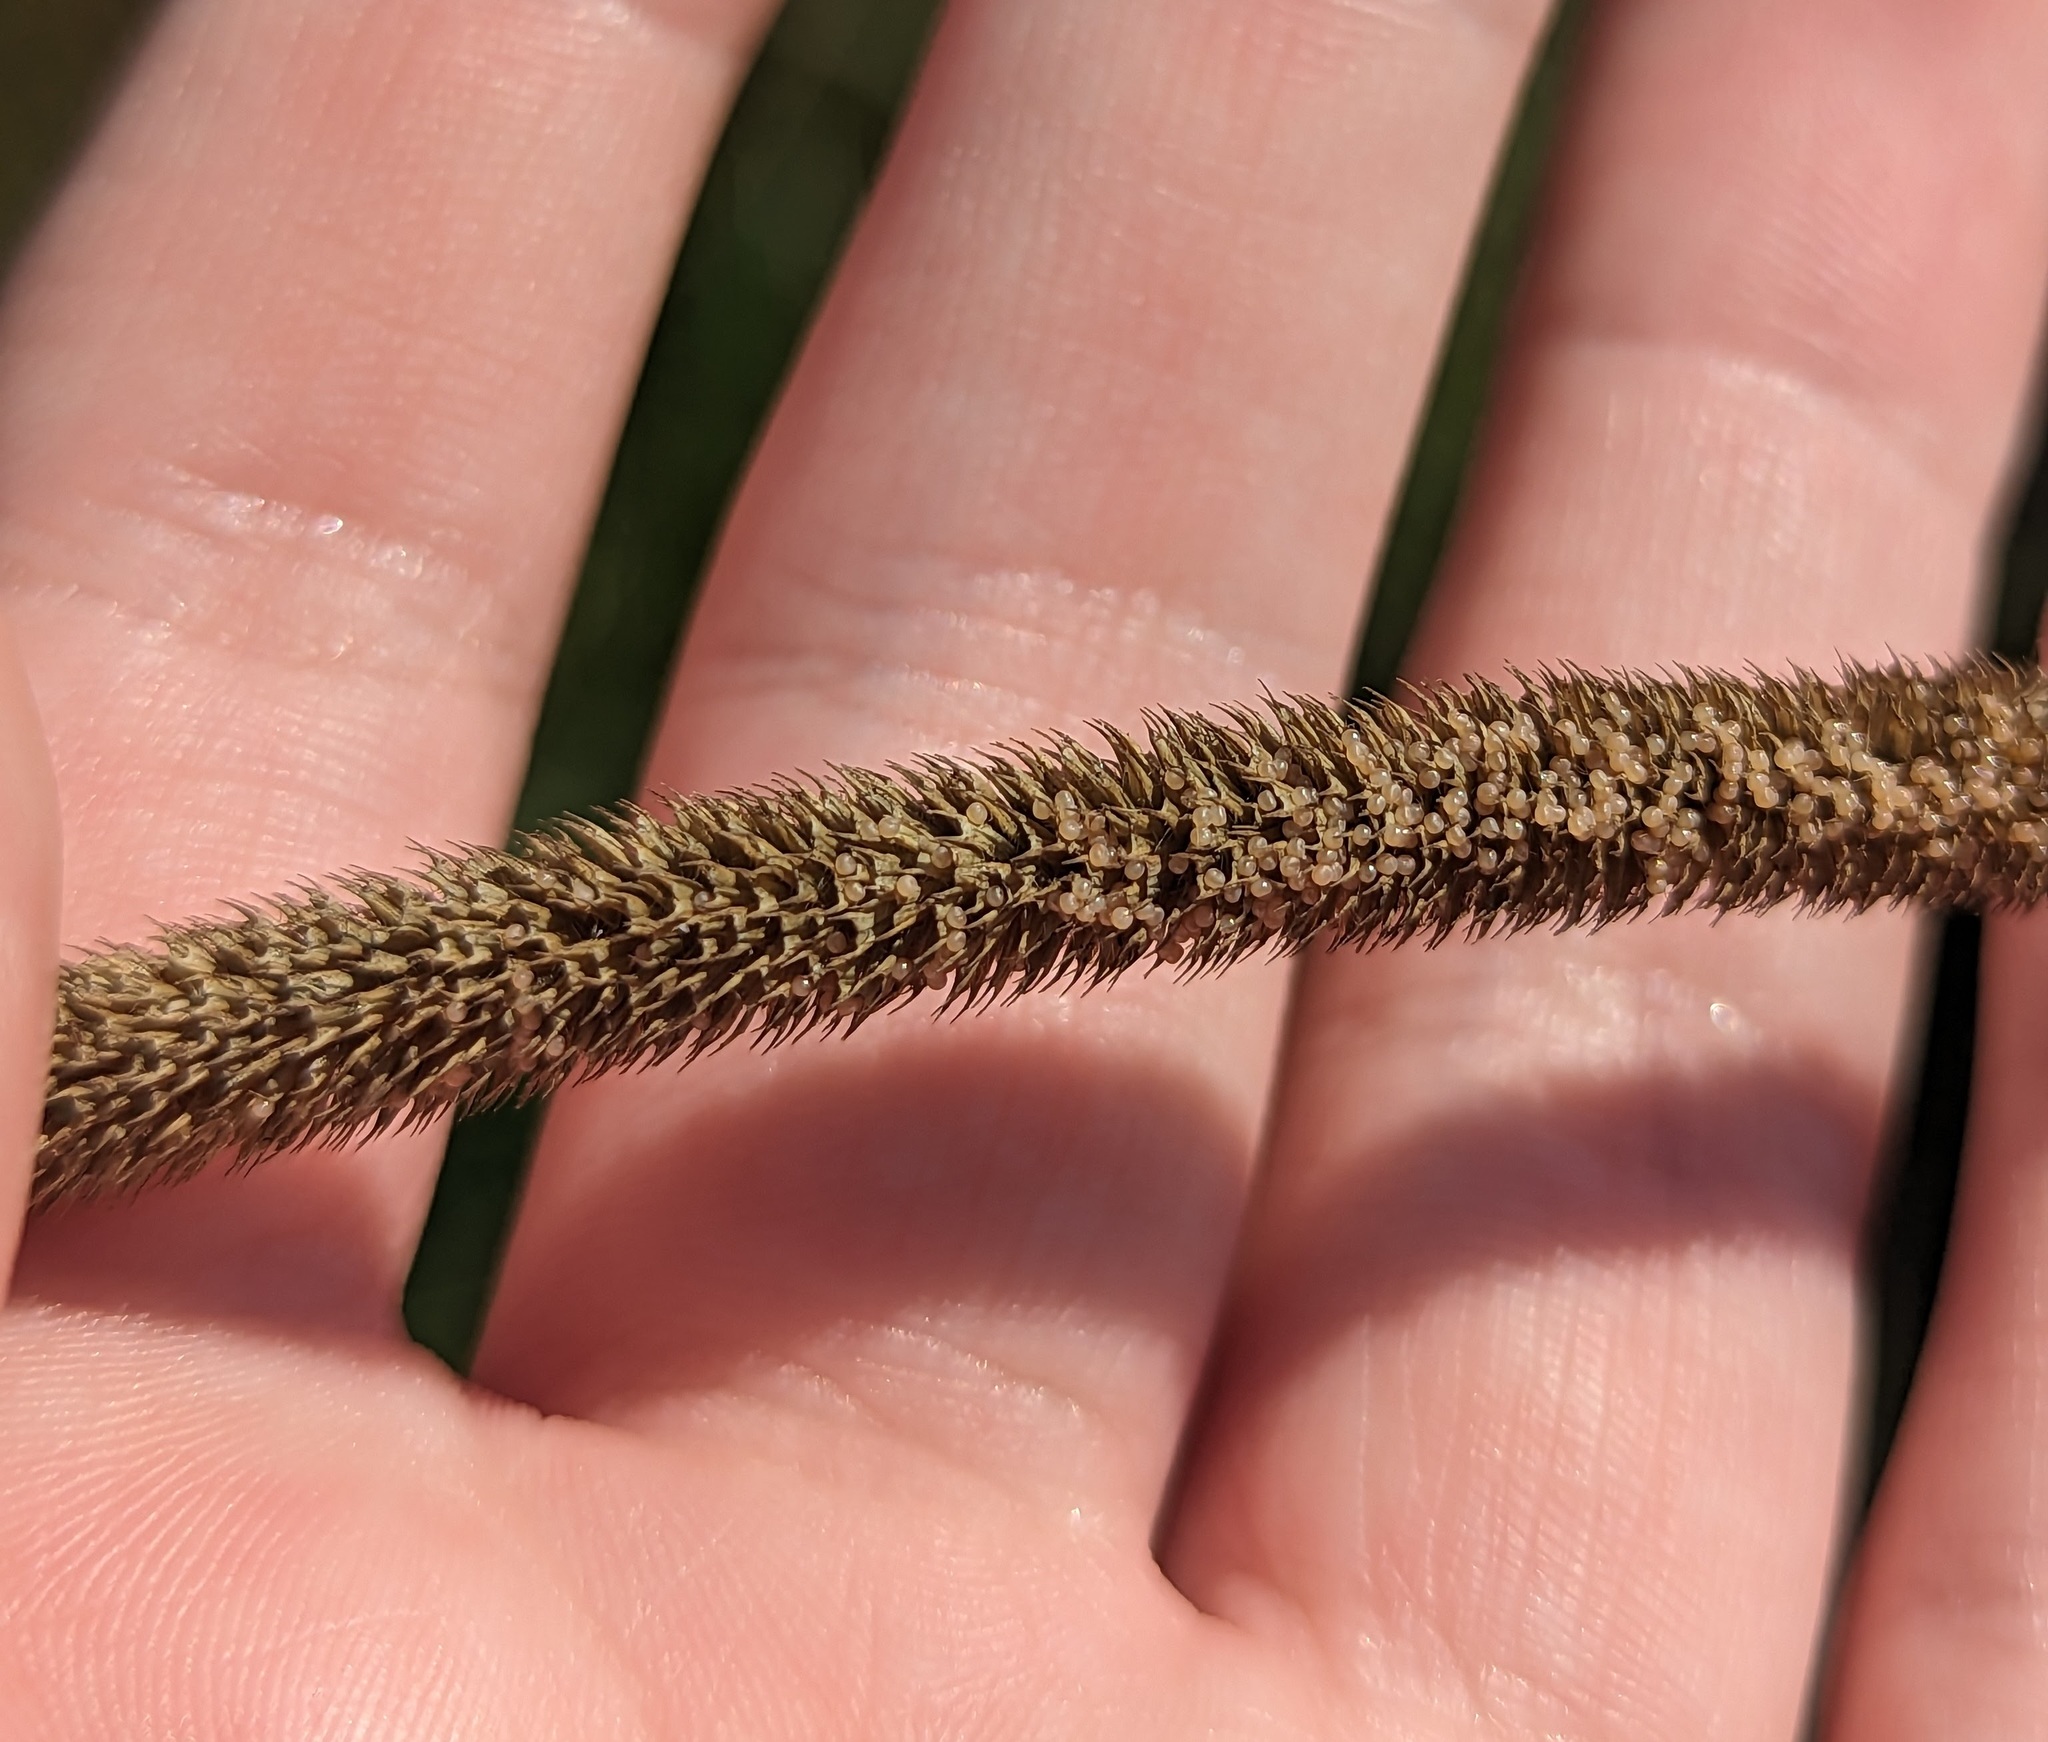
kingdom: Plantae
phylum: Tracheophyta
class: Liliopsida
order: Poales
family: Poaceae
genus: Phleum
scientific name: Phleum pratense
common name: Timothy grass
